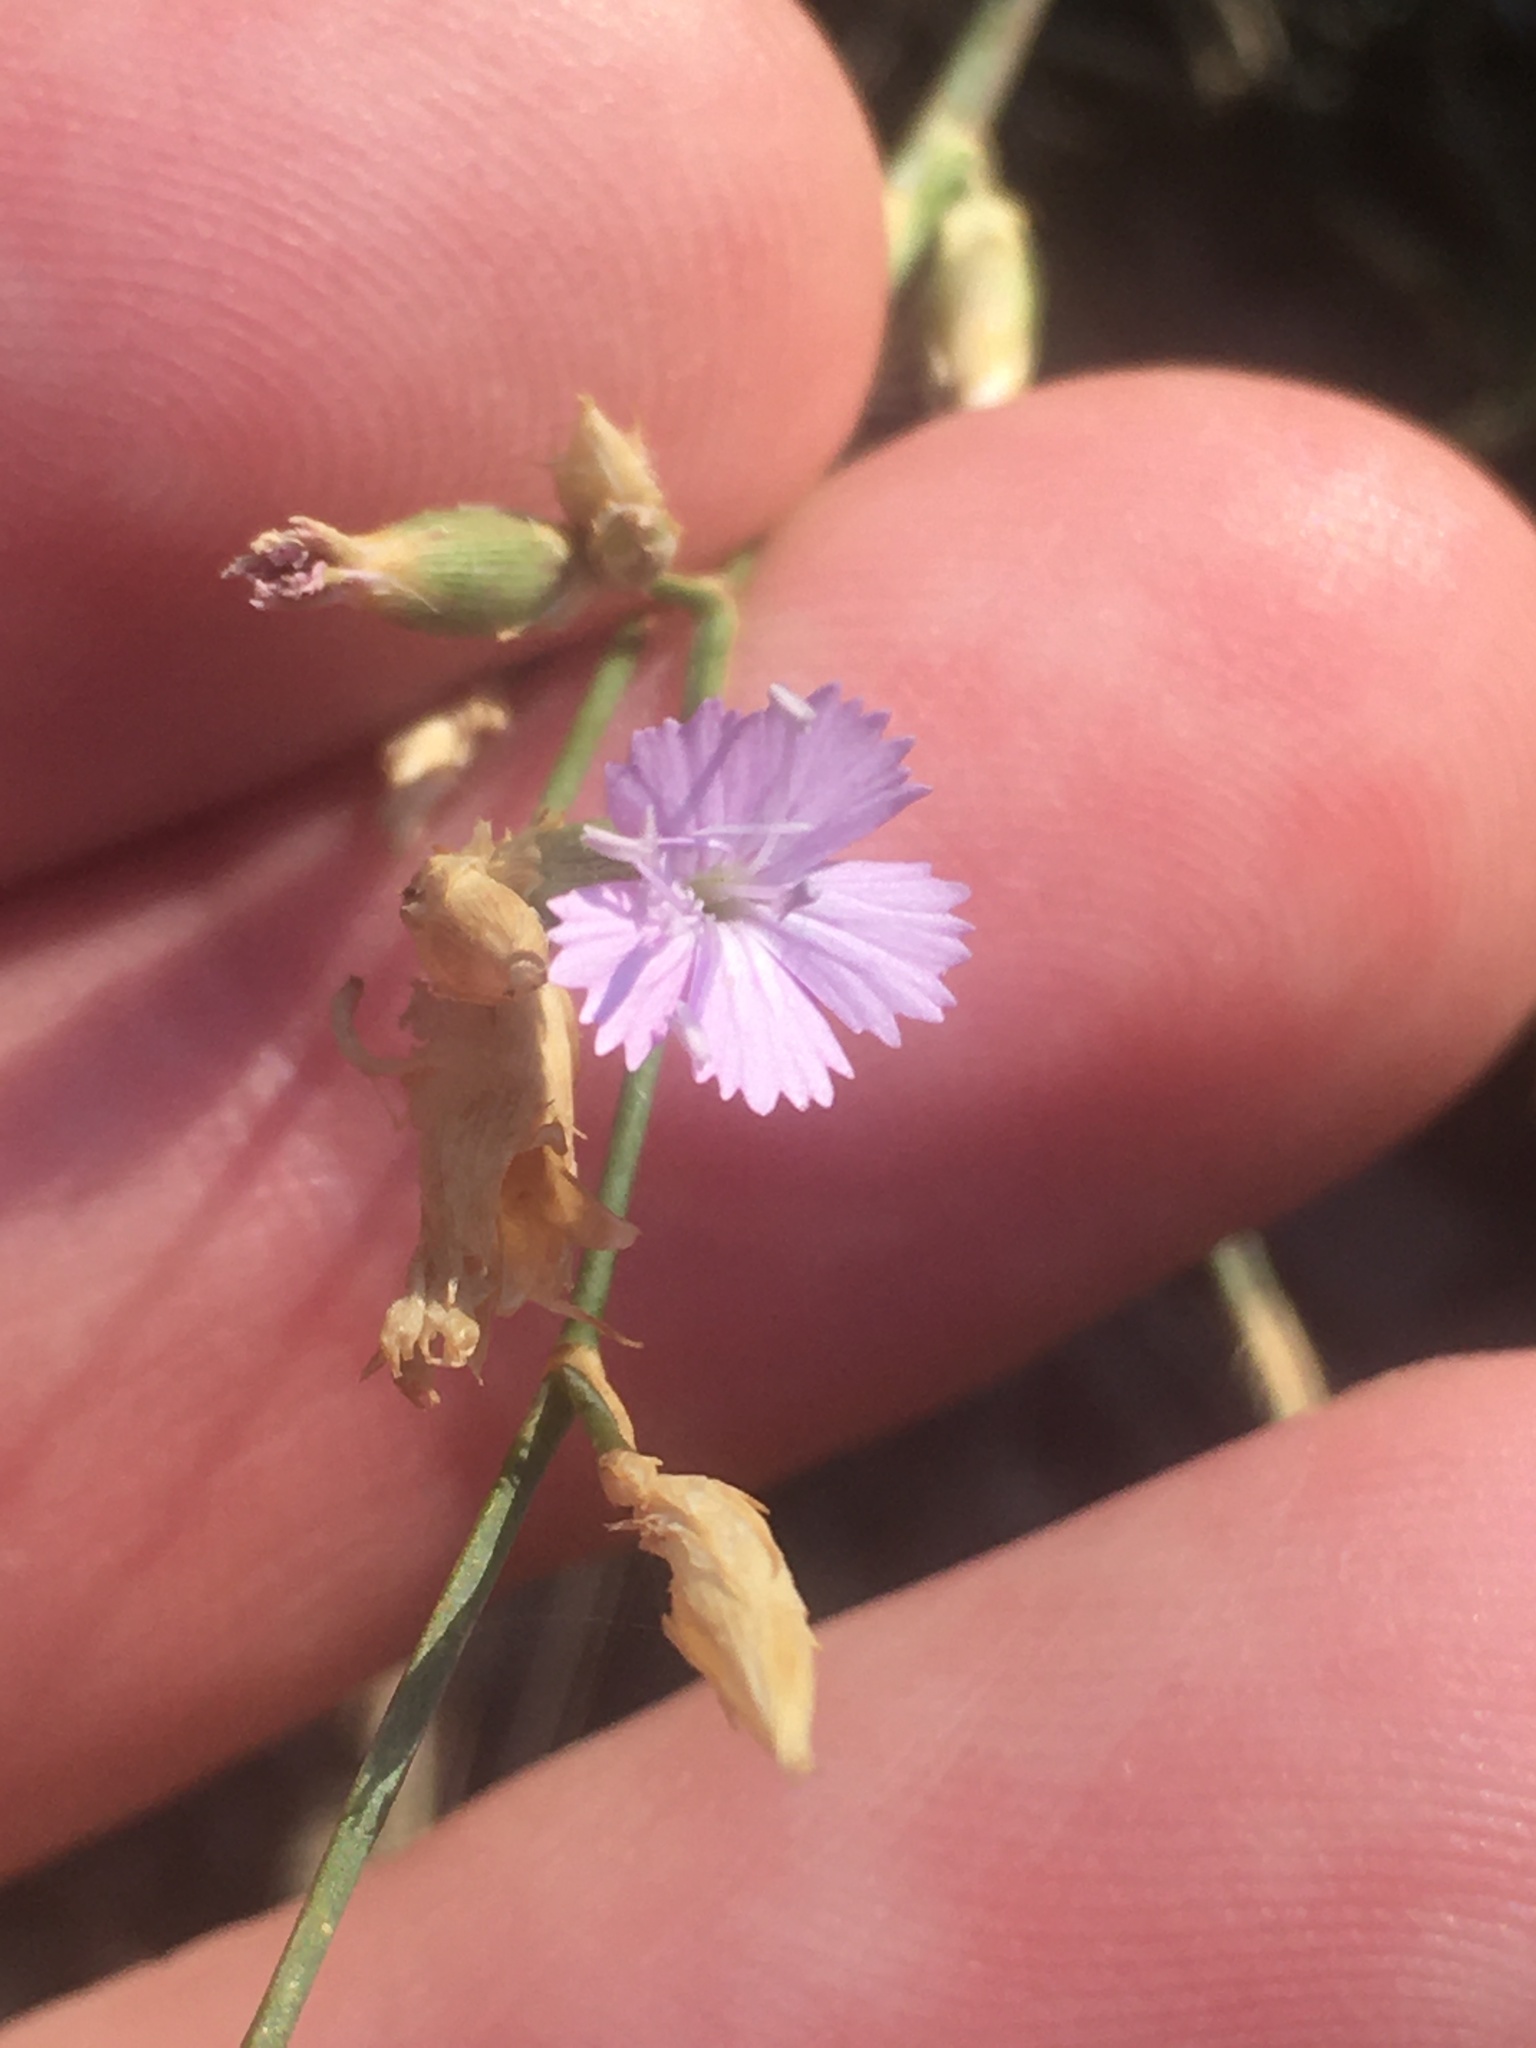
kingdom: Plantae
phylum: Tracheophyta
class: Magnoliopsida
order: Caryophyllales
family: Caryophyllaceae
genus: Dianthus
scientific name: Dianthus humilis
